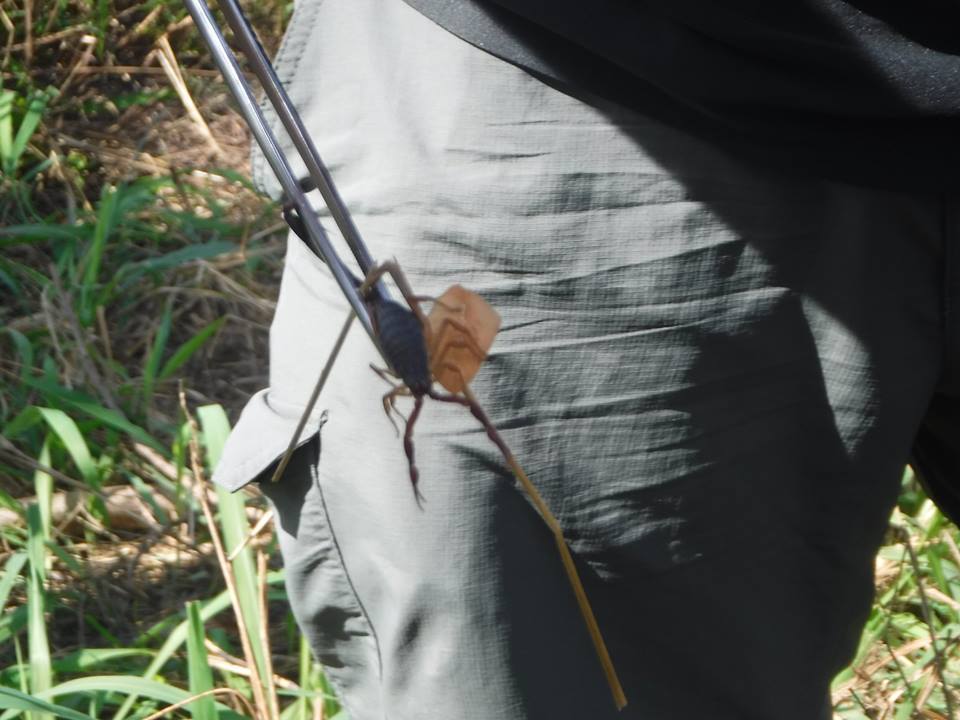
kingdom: Animalia
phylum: Arthropoda
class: Arachnida
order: Scorpiones
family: Buthidae
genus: Centruroides
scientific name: Centruroides gracilis
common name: Scorpions
